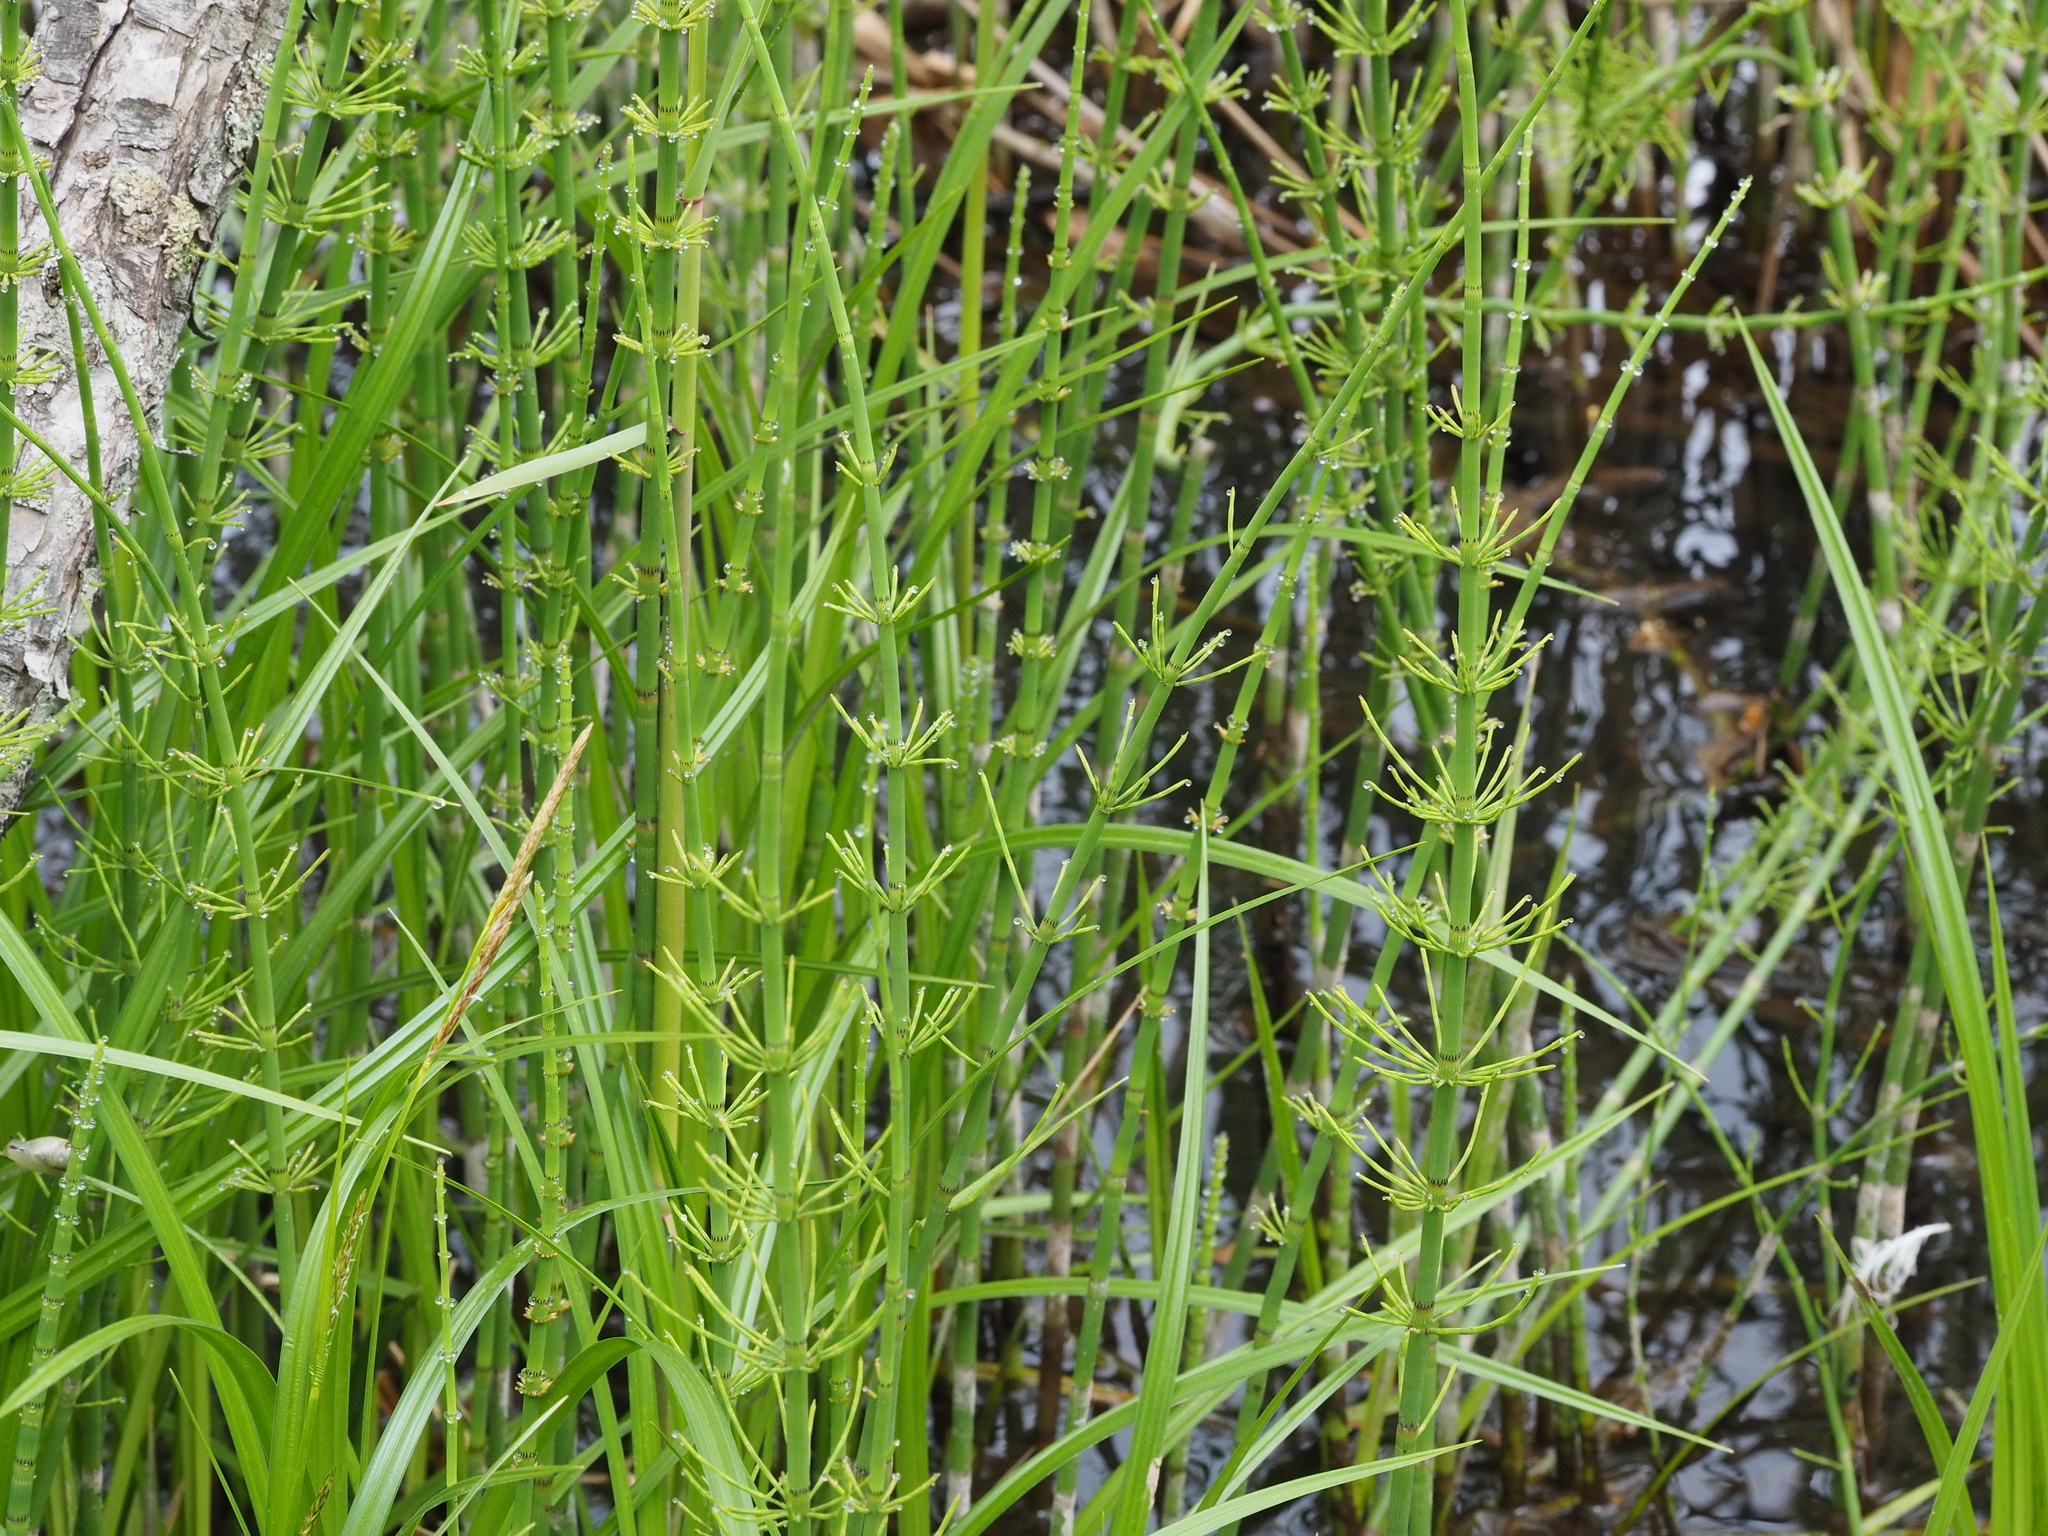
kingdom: Plantae
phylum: Tracheophyta
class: Polypodiopsida
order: Equisetales
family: Equisetaceae
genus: Equisetum
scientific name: Equisetum fluviatile
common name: Water horsetail
